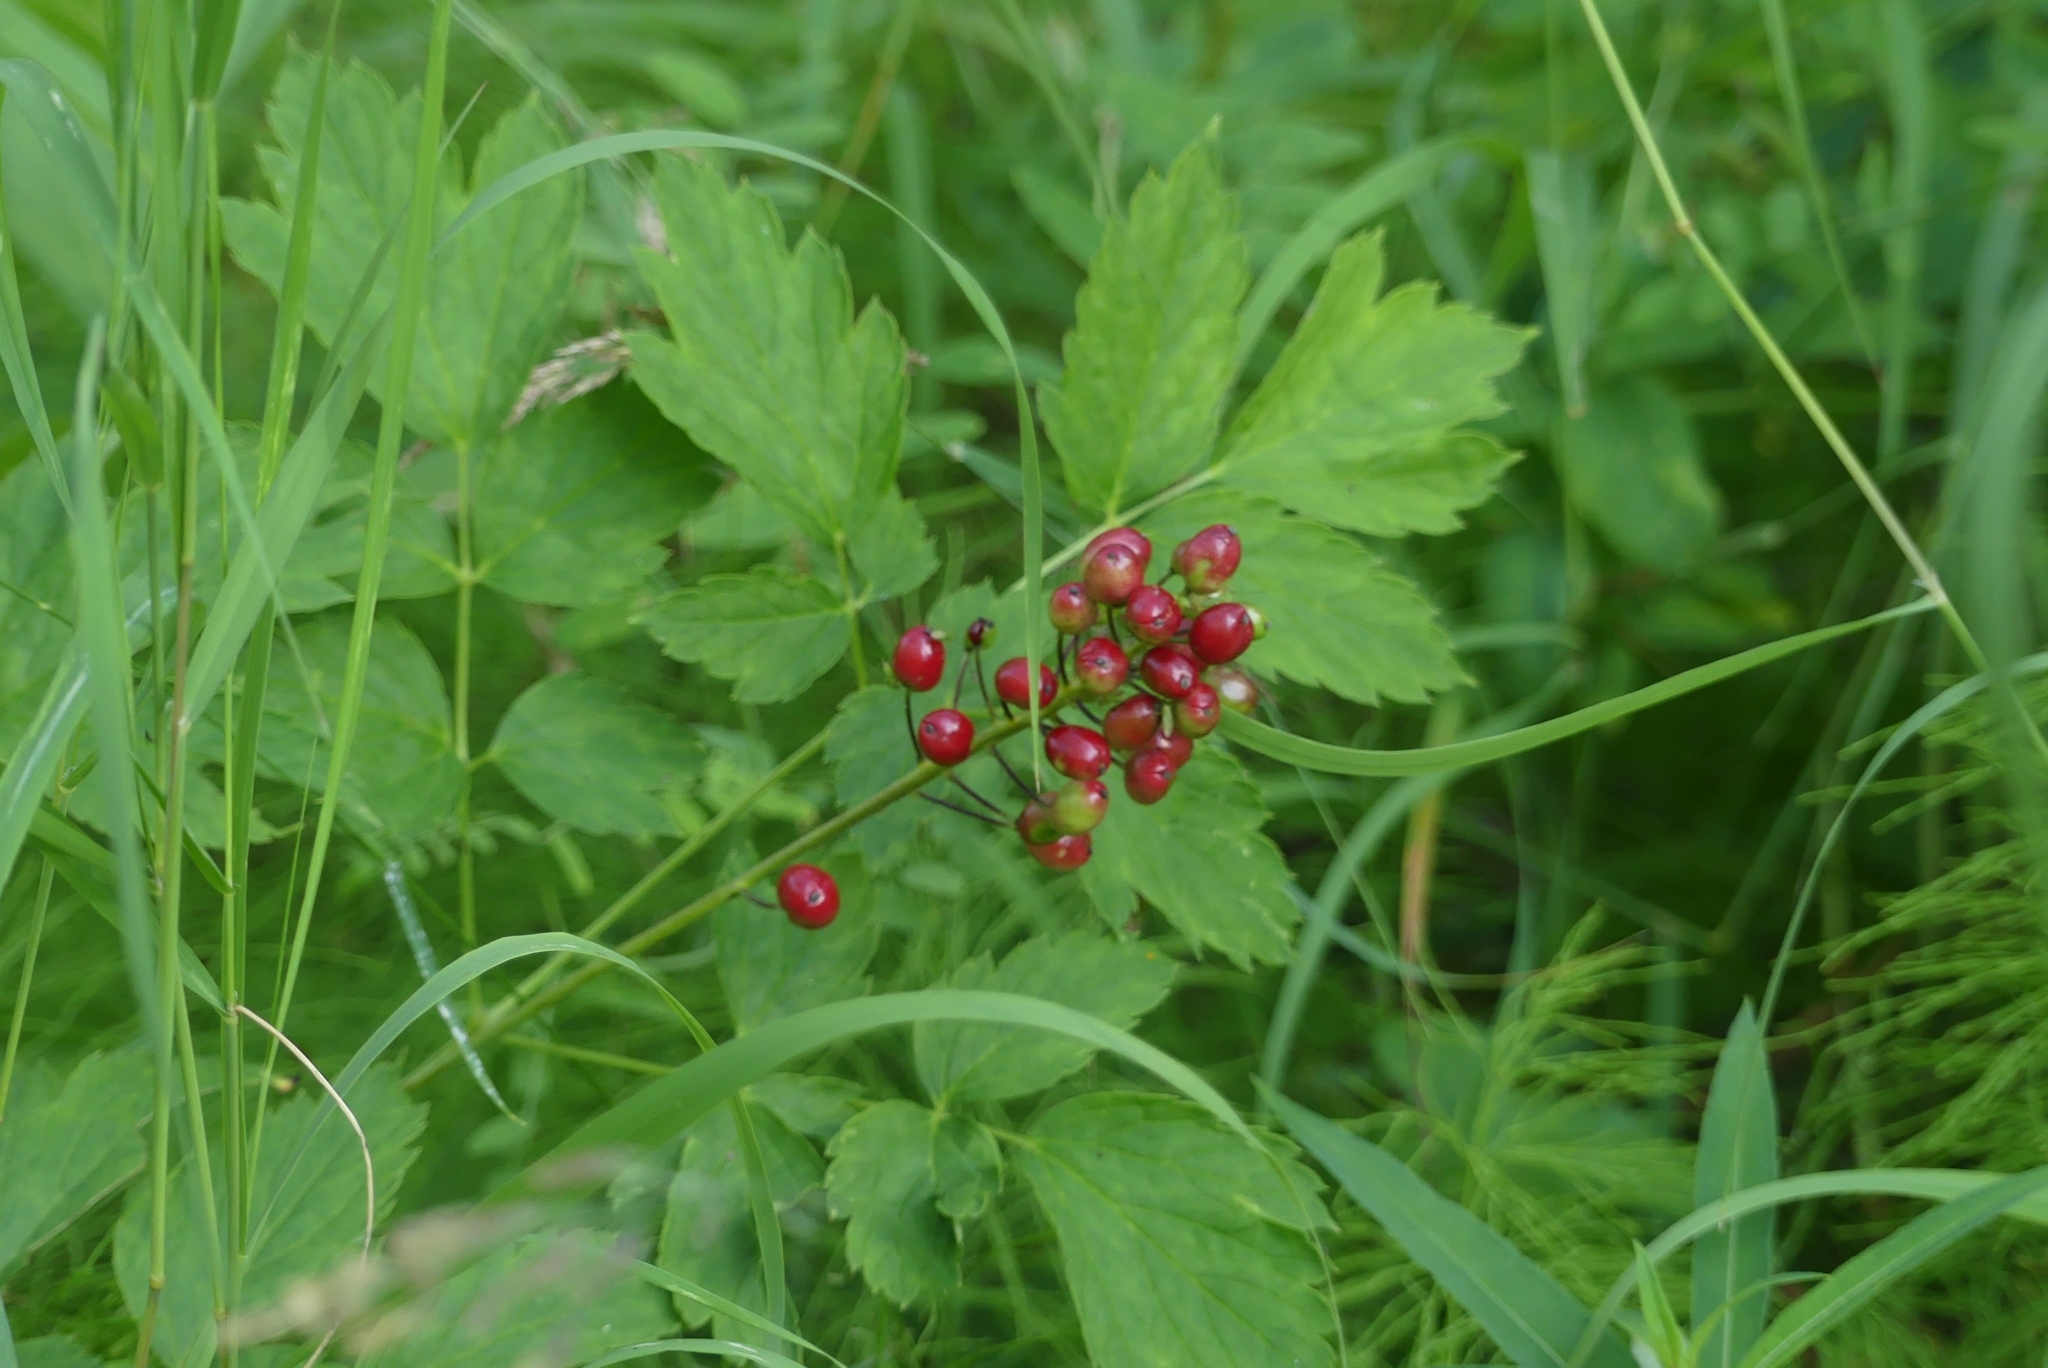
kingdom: Plantae
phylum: Tracheophyta
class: Magnoliopsida
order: Ranunculales
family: Ranunculaceae
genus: Actaea
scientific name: Actaea rubra
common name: Red baneberry
